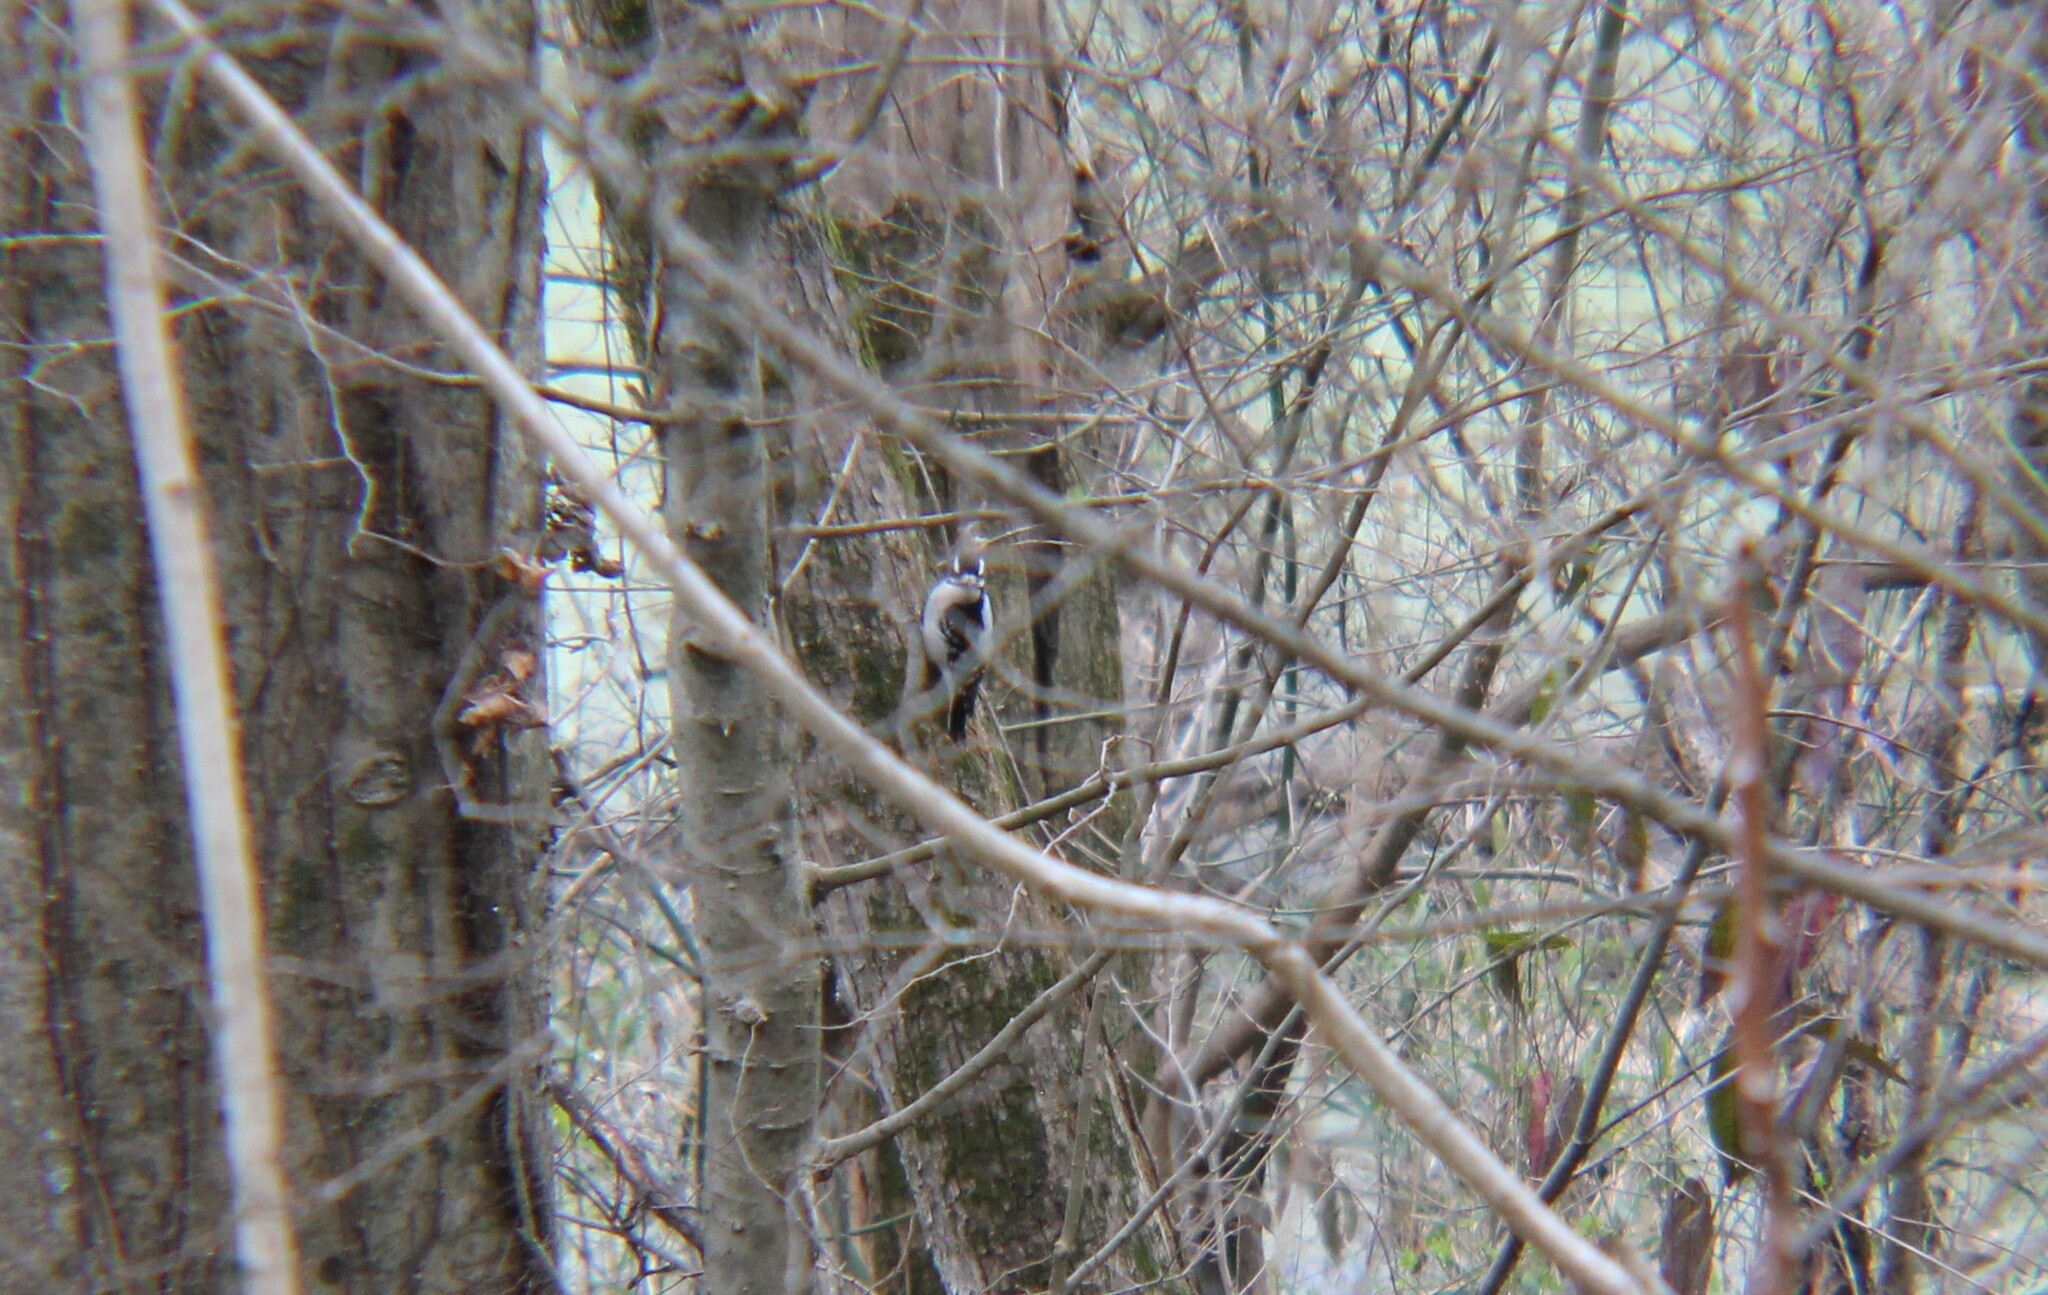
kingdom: Animalia
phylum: Chordata
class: Aves
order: Piciformes
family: Picidae
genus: Dryobates
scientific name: Dryobates pubescens
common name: Downy woodpecker
